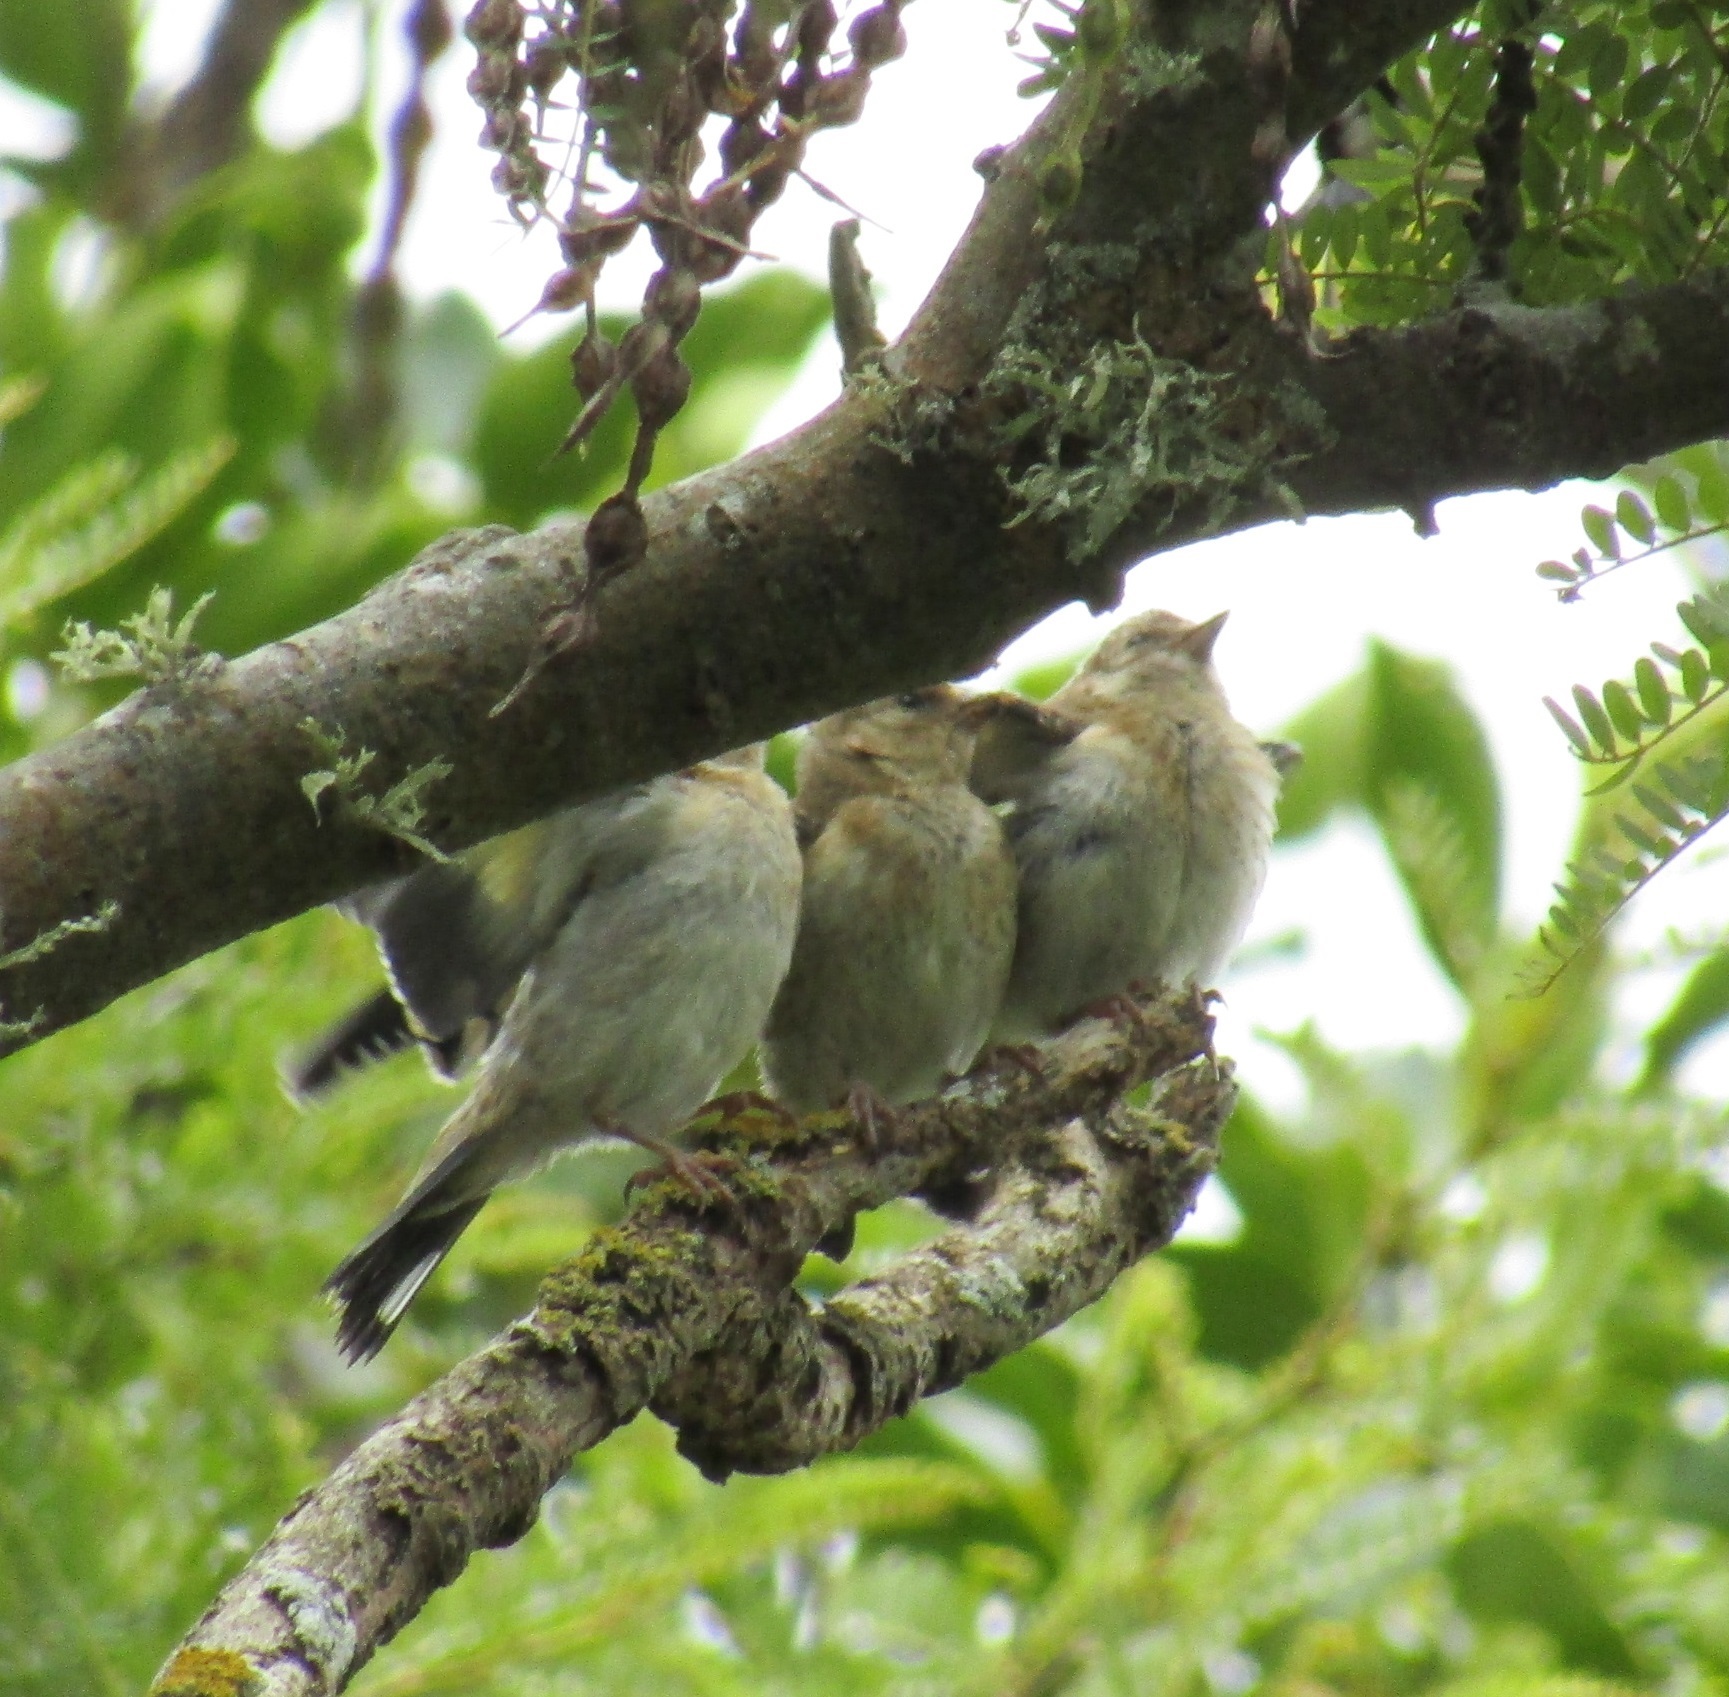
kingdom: Animalia
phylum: Chordata
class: Aves
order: Passeriformes
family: Fringillidae
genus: Carduelis
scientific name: Carduelis carduelis
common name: European goldfinch
